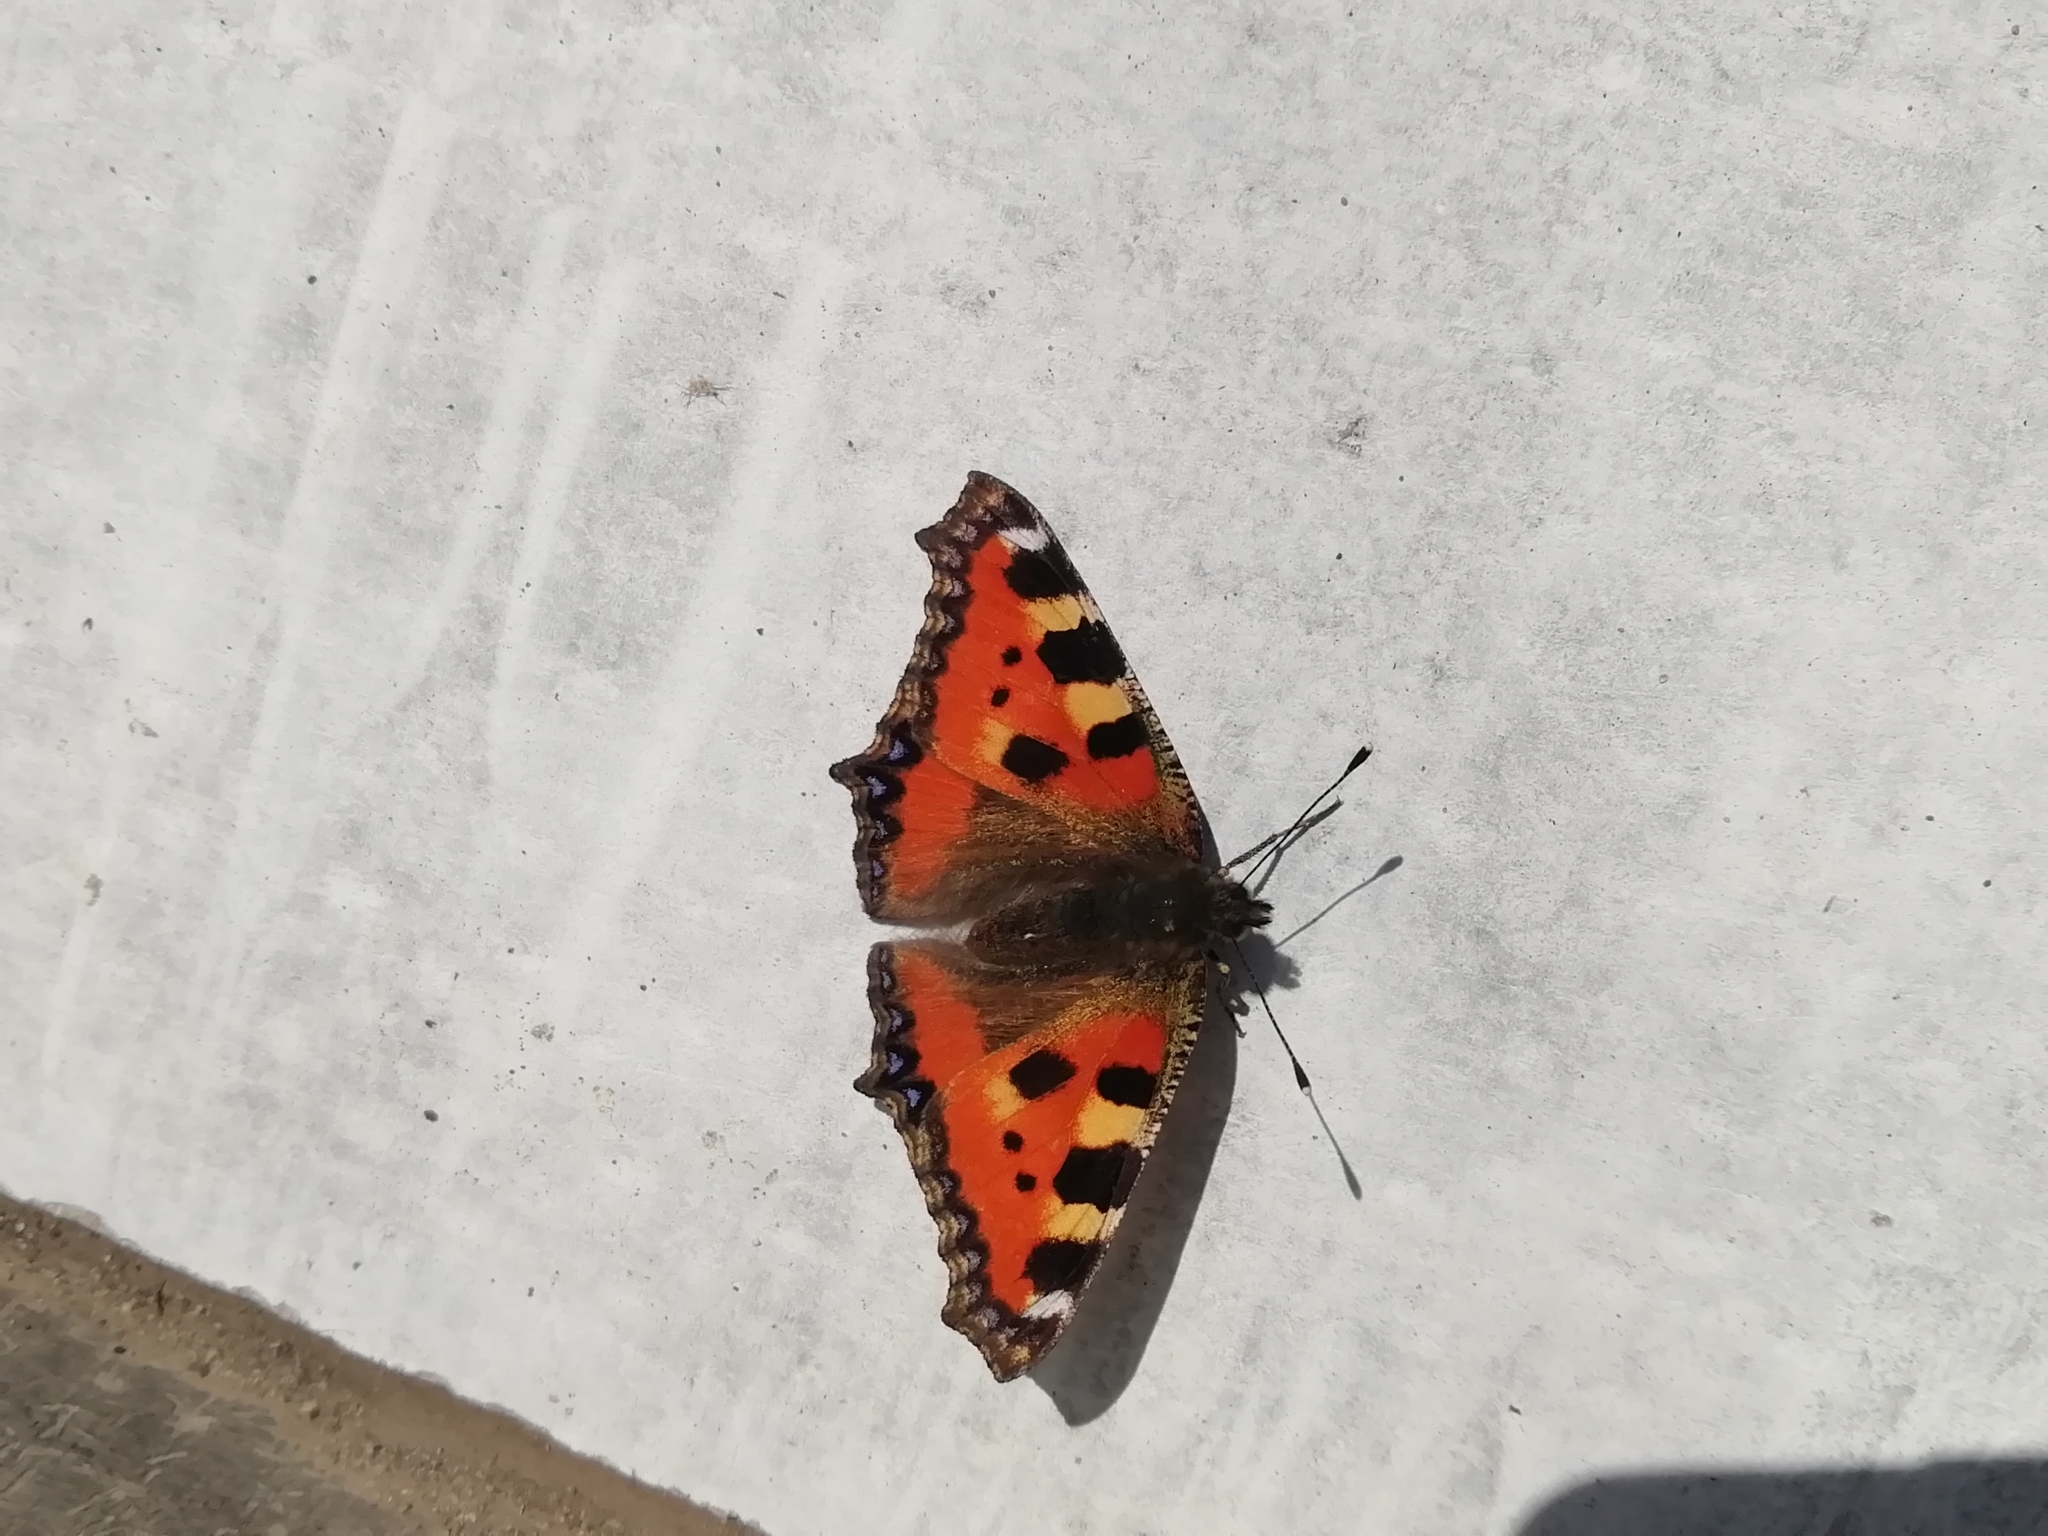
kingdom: Animalia
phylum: Arthropoda
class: Insecta
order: Lepidoptera
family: Nymphalidae
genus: Aglais
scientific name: Aglais urticae
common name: Small tortoiseshell
